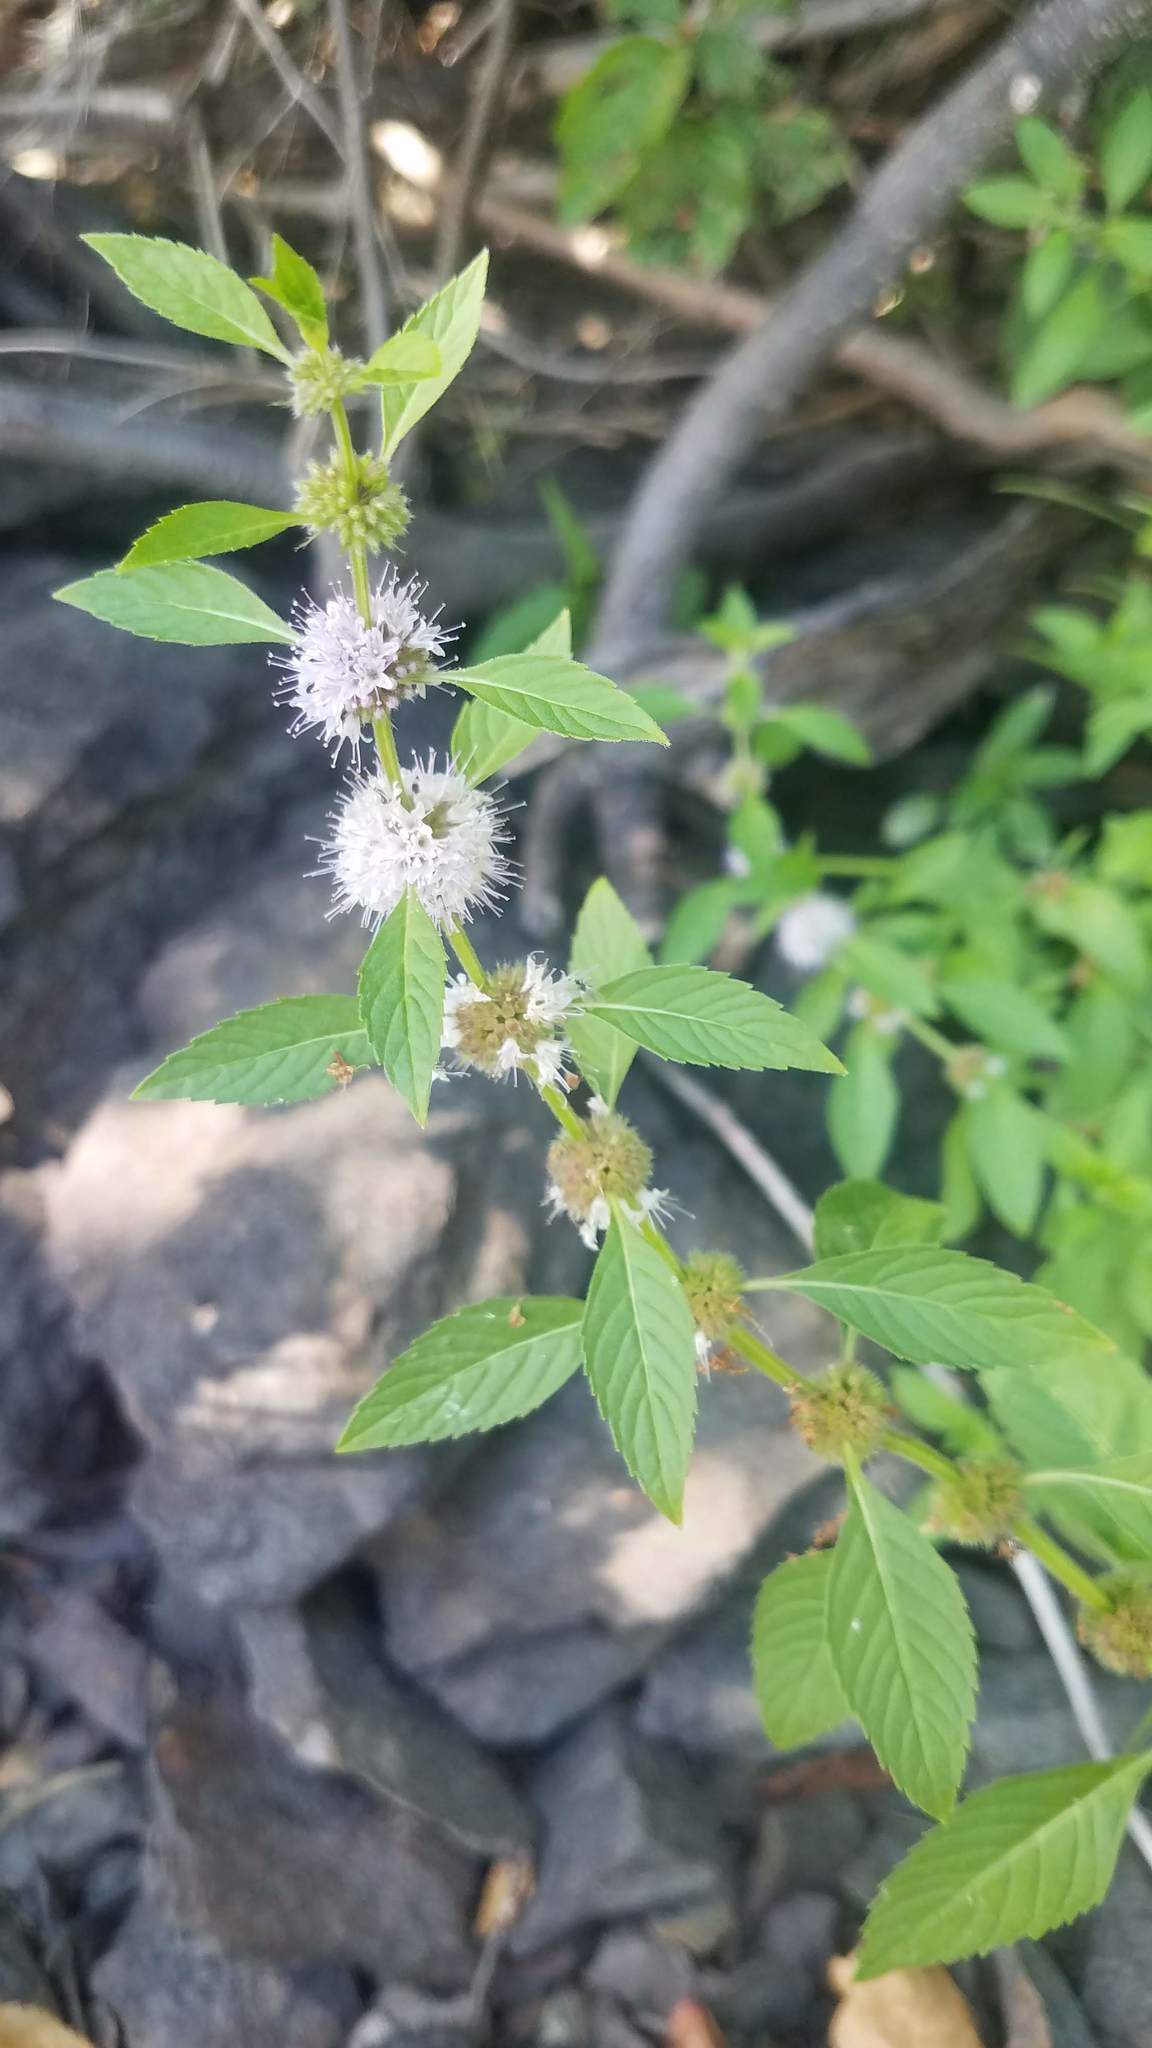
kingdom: Plantae
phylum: Tracheophyta
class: Magnoliopsida
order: Lamiales
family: Lamiaceae
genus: Mentha
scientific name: Mentha canadensis
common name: American corn mint
